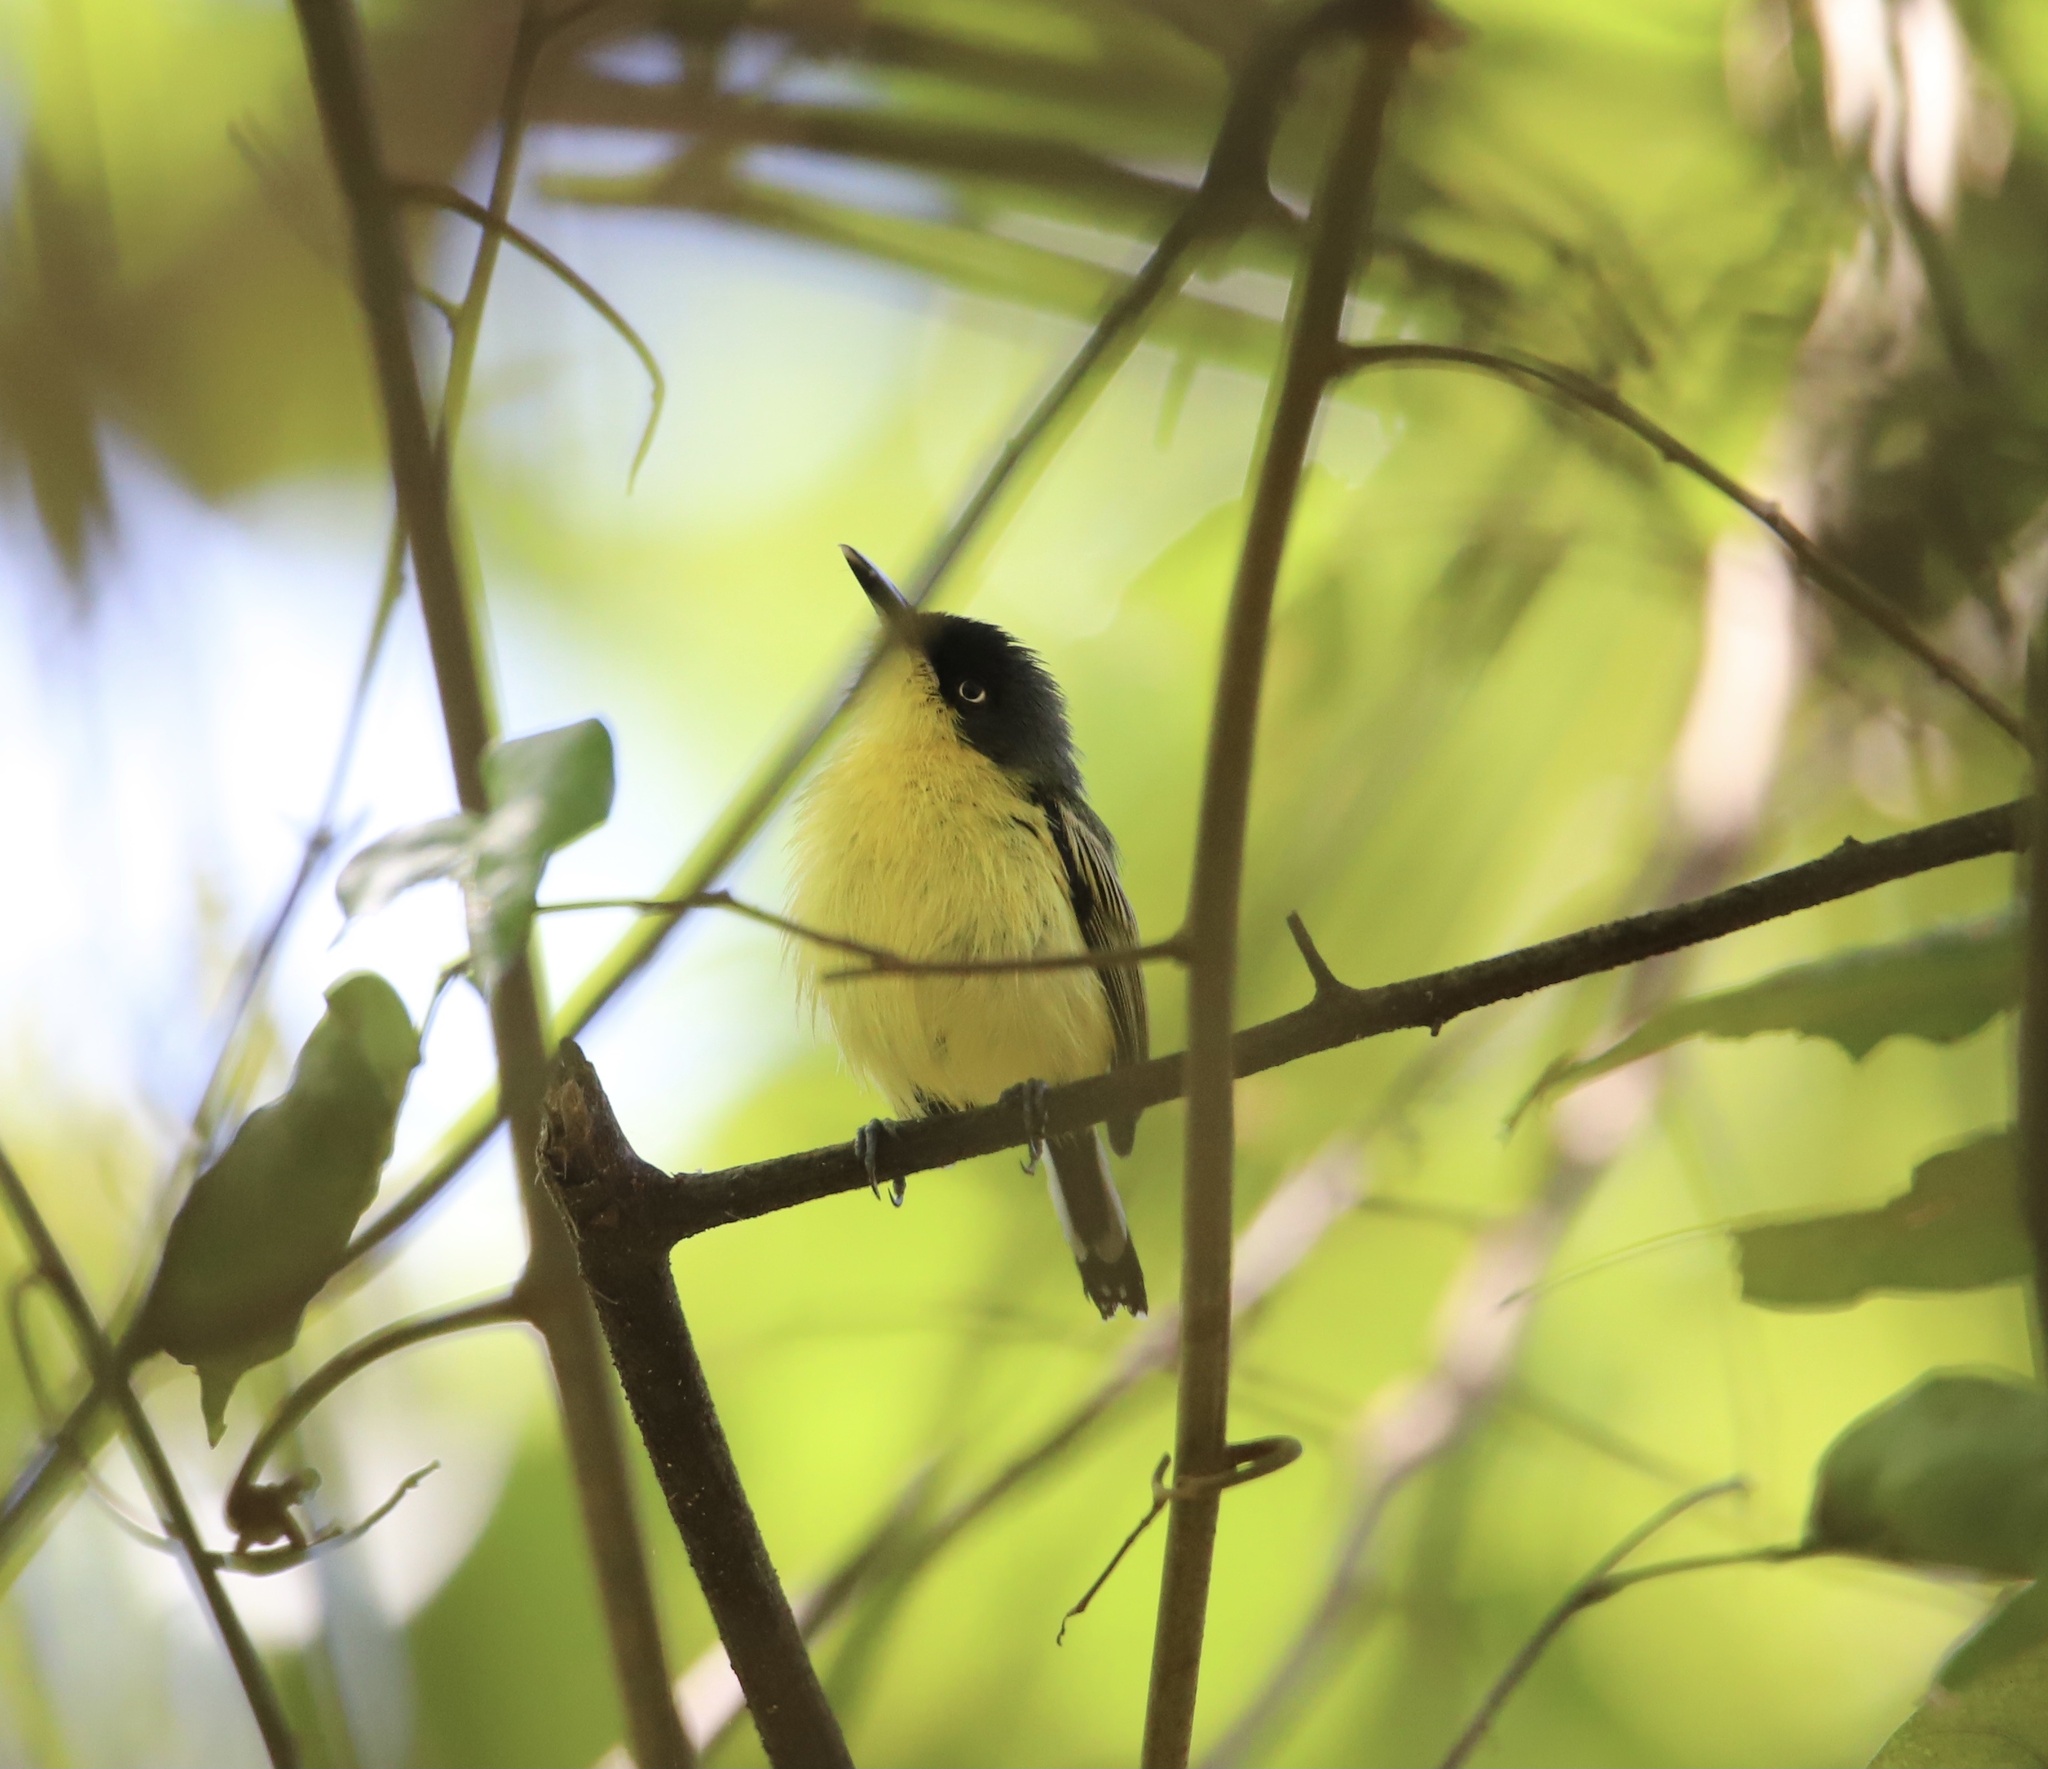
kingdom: Animalia
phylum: Chordata
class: Aves
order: Passeriformes
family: Tyrannidae
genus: Todirostrum
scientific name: Todirostrum cinereum
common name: Common tody-flycatcher
